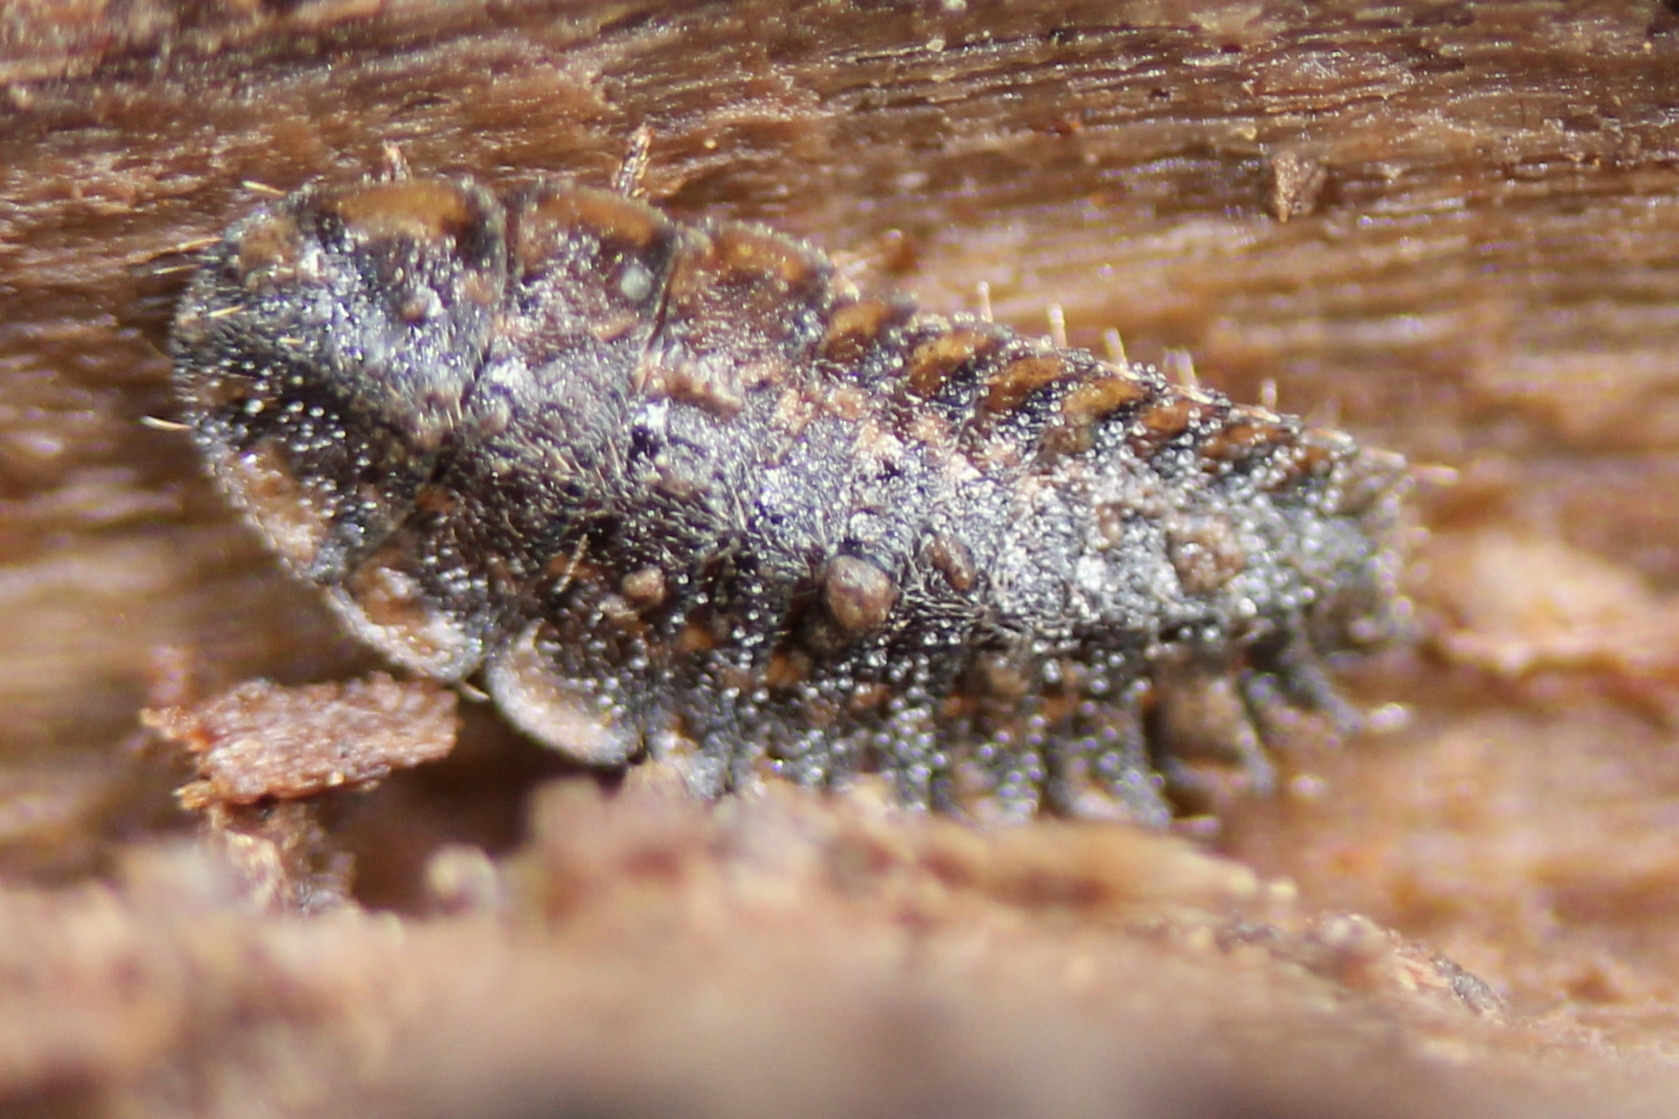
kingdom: Animalia
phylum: Arthropoda
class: Insecta
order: Coleoptera
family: Lampyridae
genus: Photuris
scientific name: Photuris
